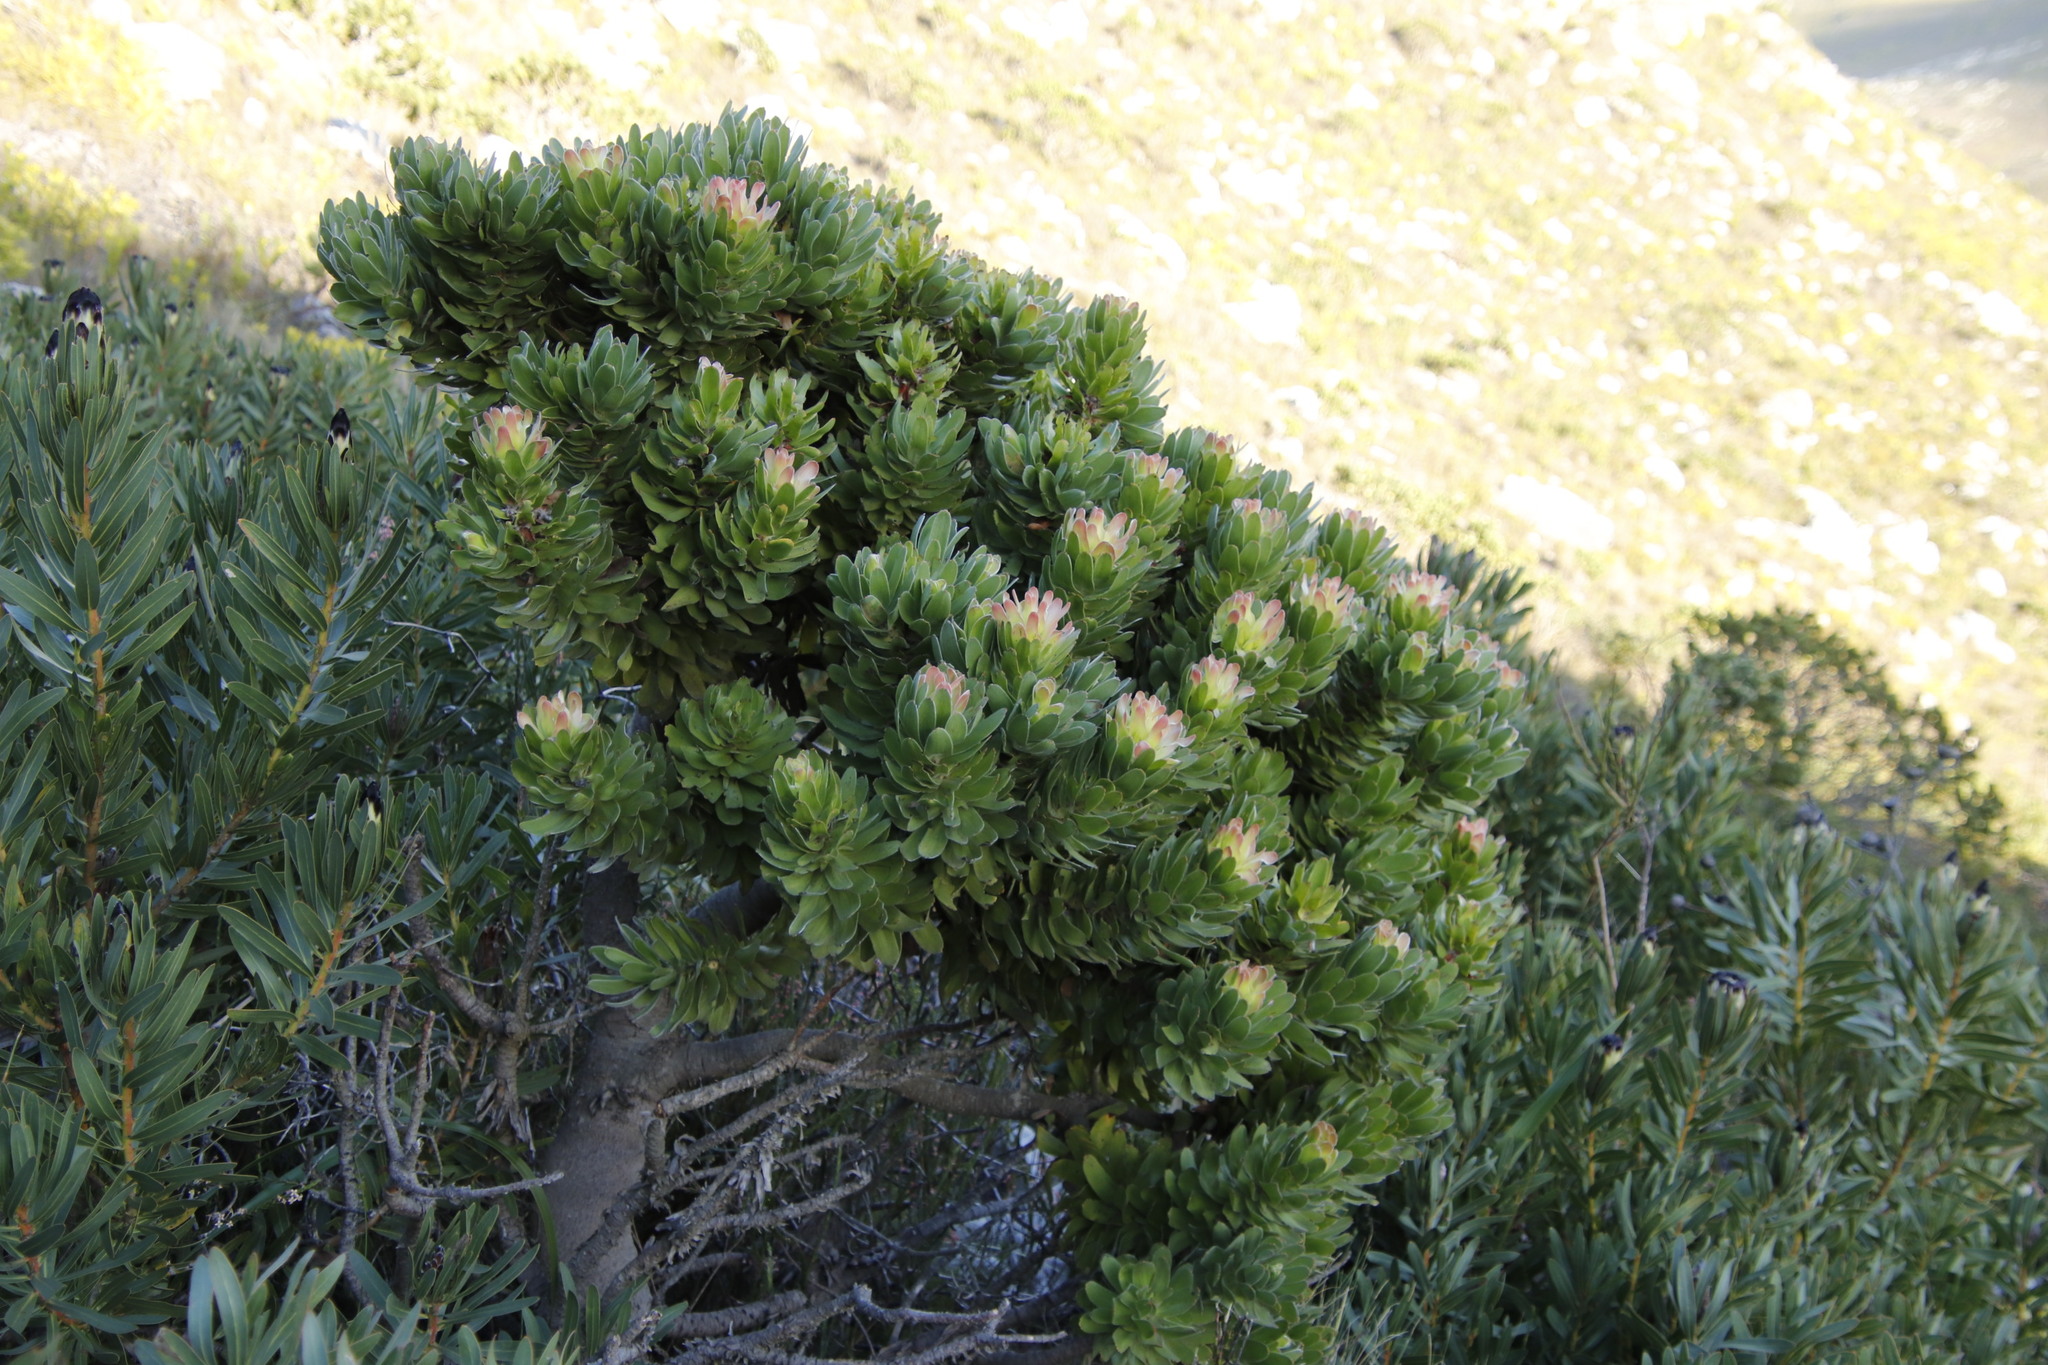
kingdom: Plantae
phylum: Tracheophyta
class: Magnoliopsida
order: Proteales
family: Proteaceae
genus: Mimetes
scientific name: Mimetes fimbriifolius
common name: Fringed bottlebrush
